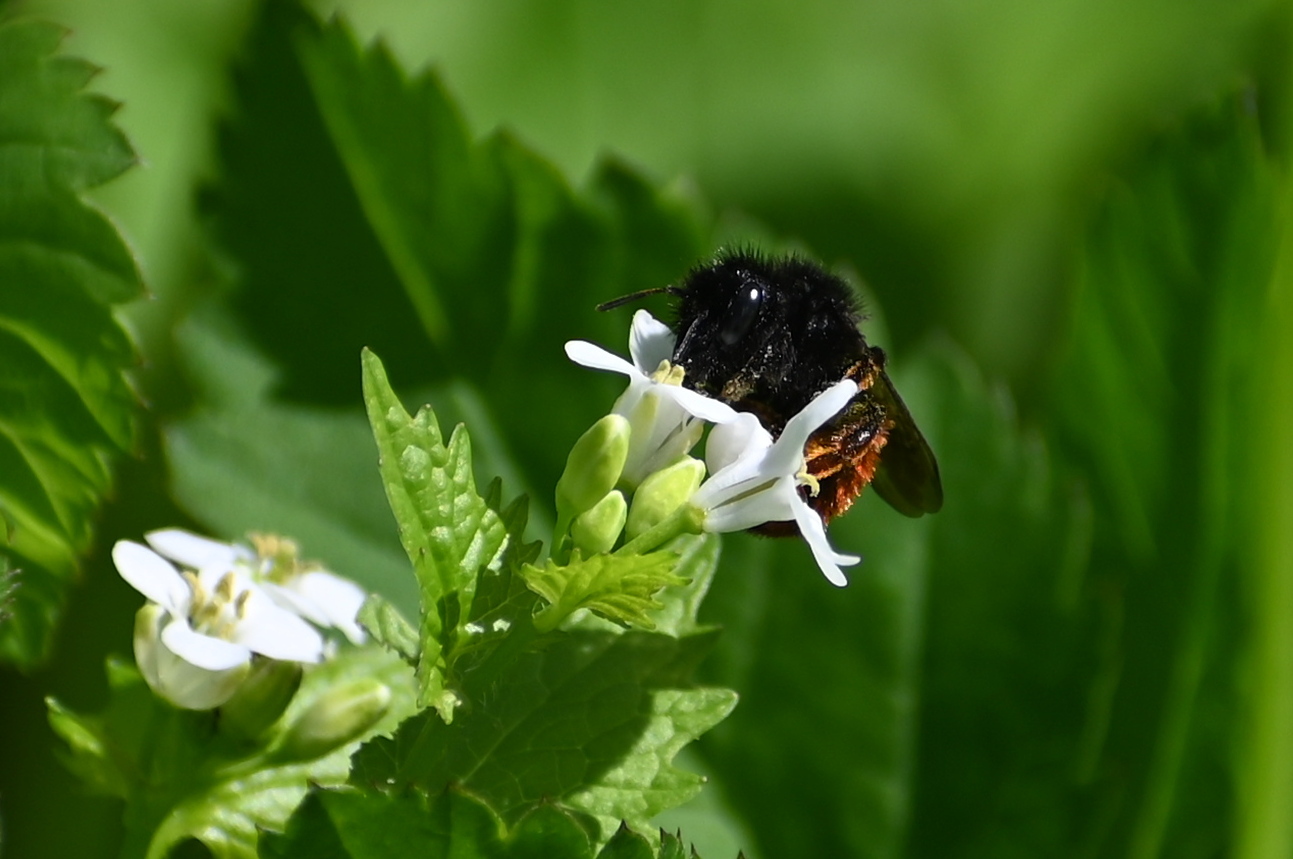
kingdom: Animalia
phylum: Arthropoda
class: Insecta
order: Hymenoptera
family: Megachilidae
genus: Osmia
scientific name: Osmia bicolor
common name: Red-tailed mason bee
